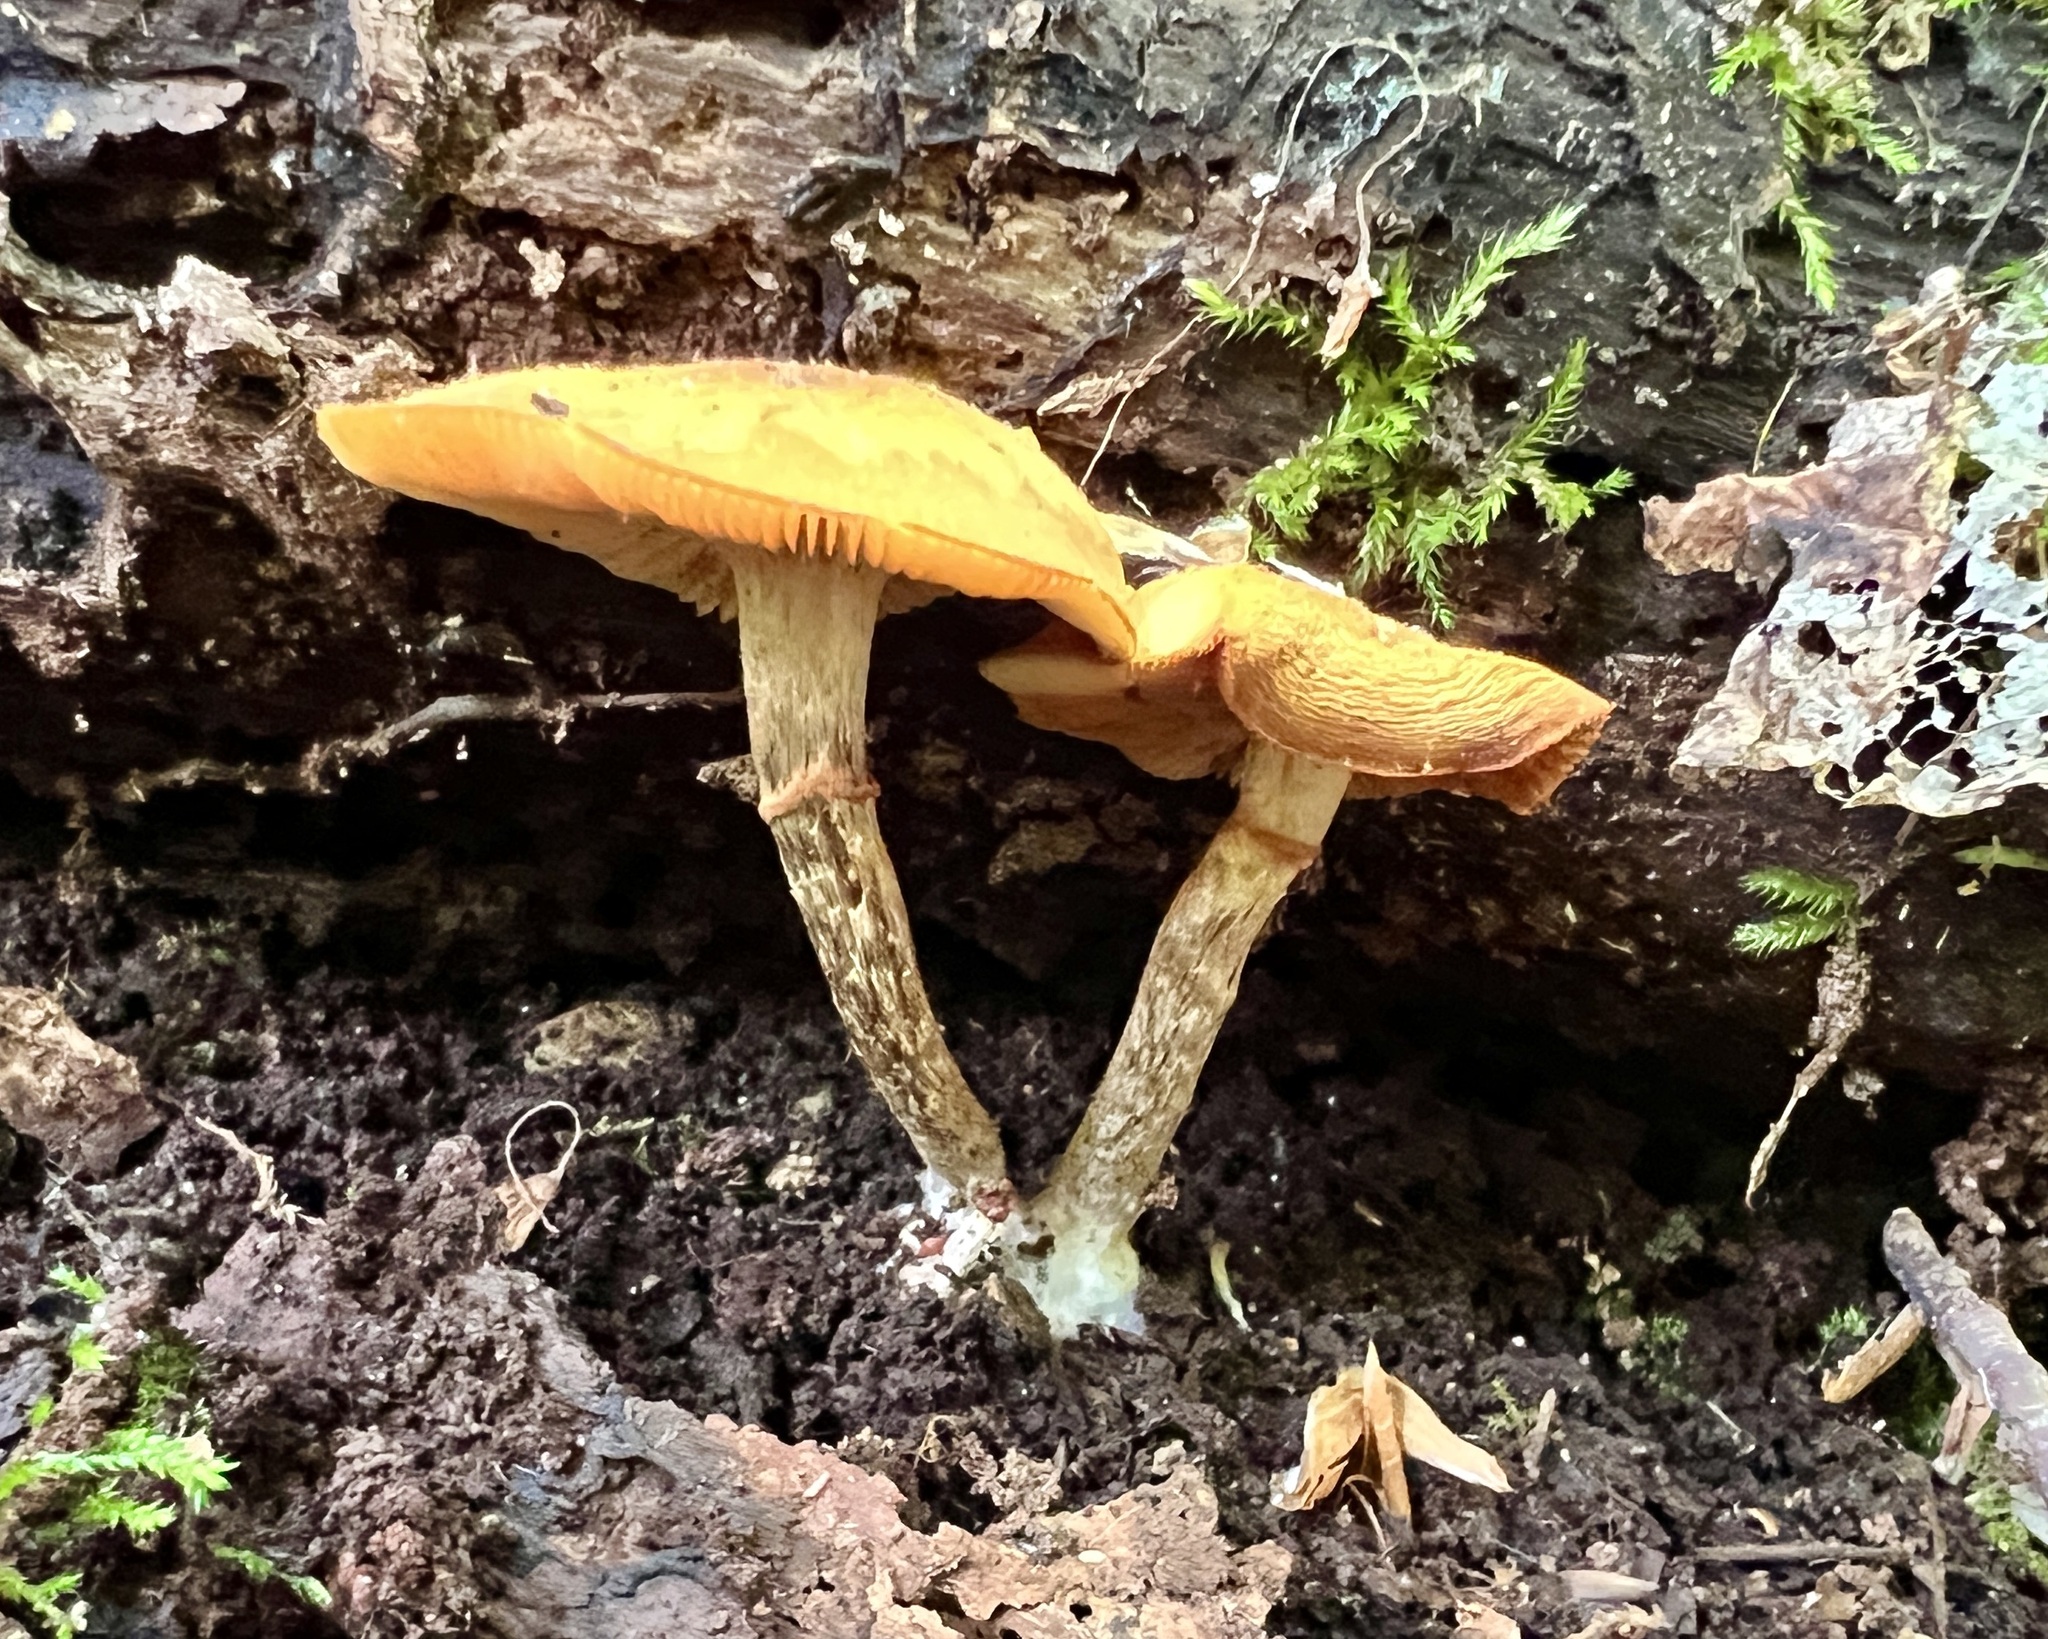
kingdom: Fungi
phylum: Basidiomycota
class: Agaricomycetes
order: Agaricales
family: Hymenogastraceae
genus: Galerina
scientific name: Galerina marginata
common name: Funeral bell
